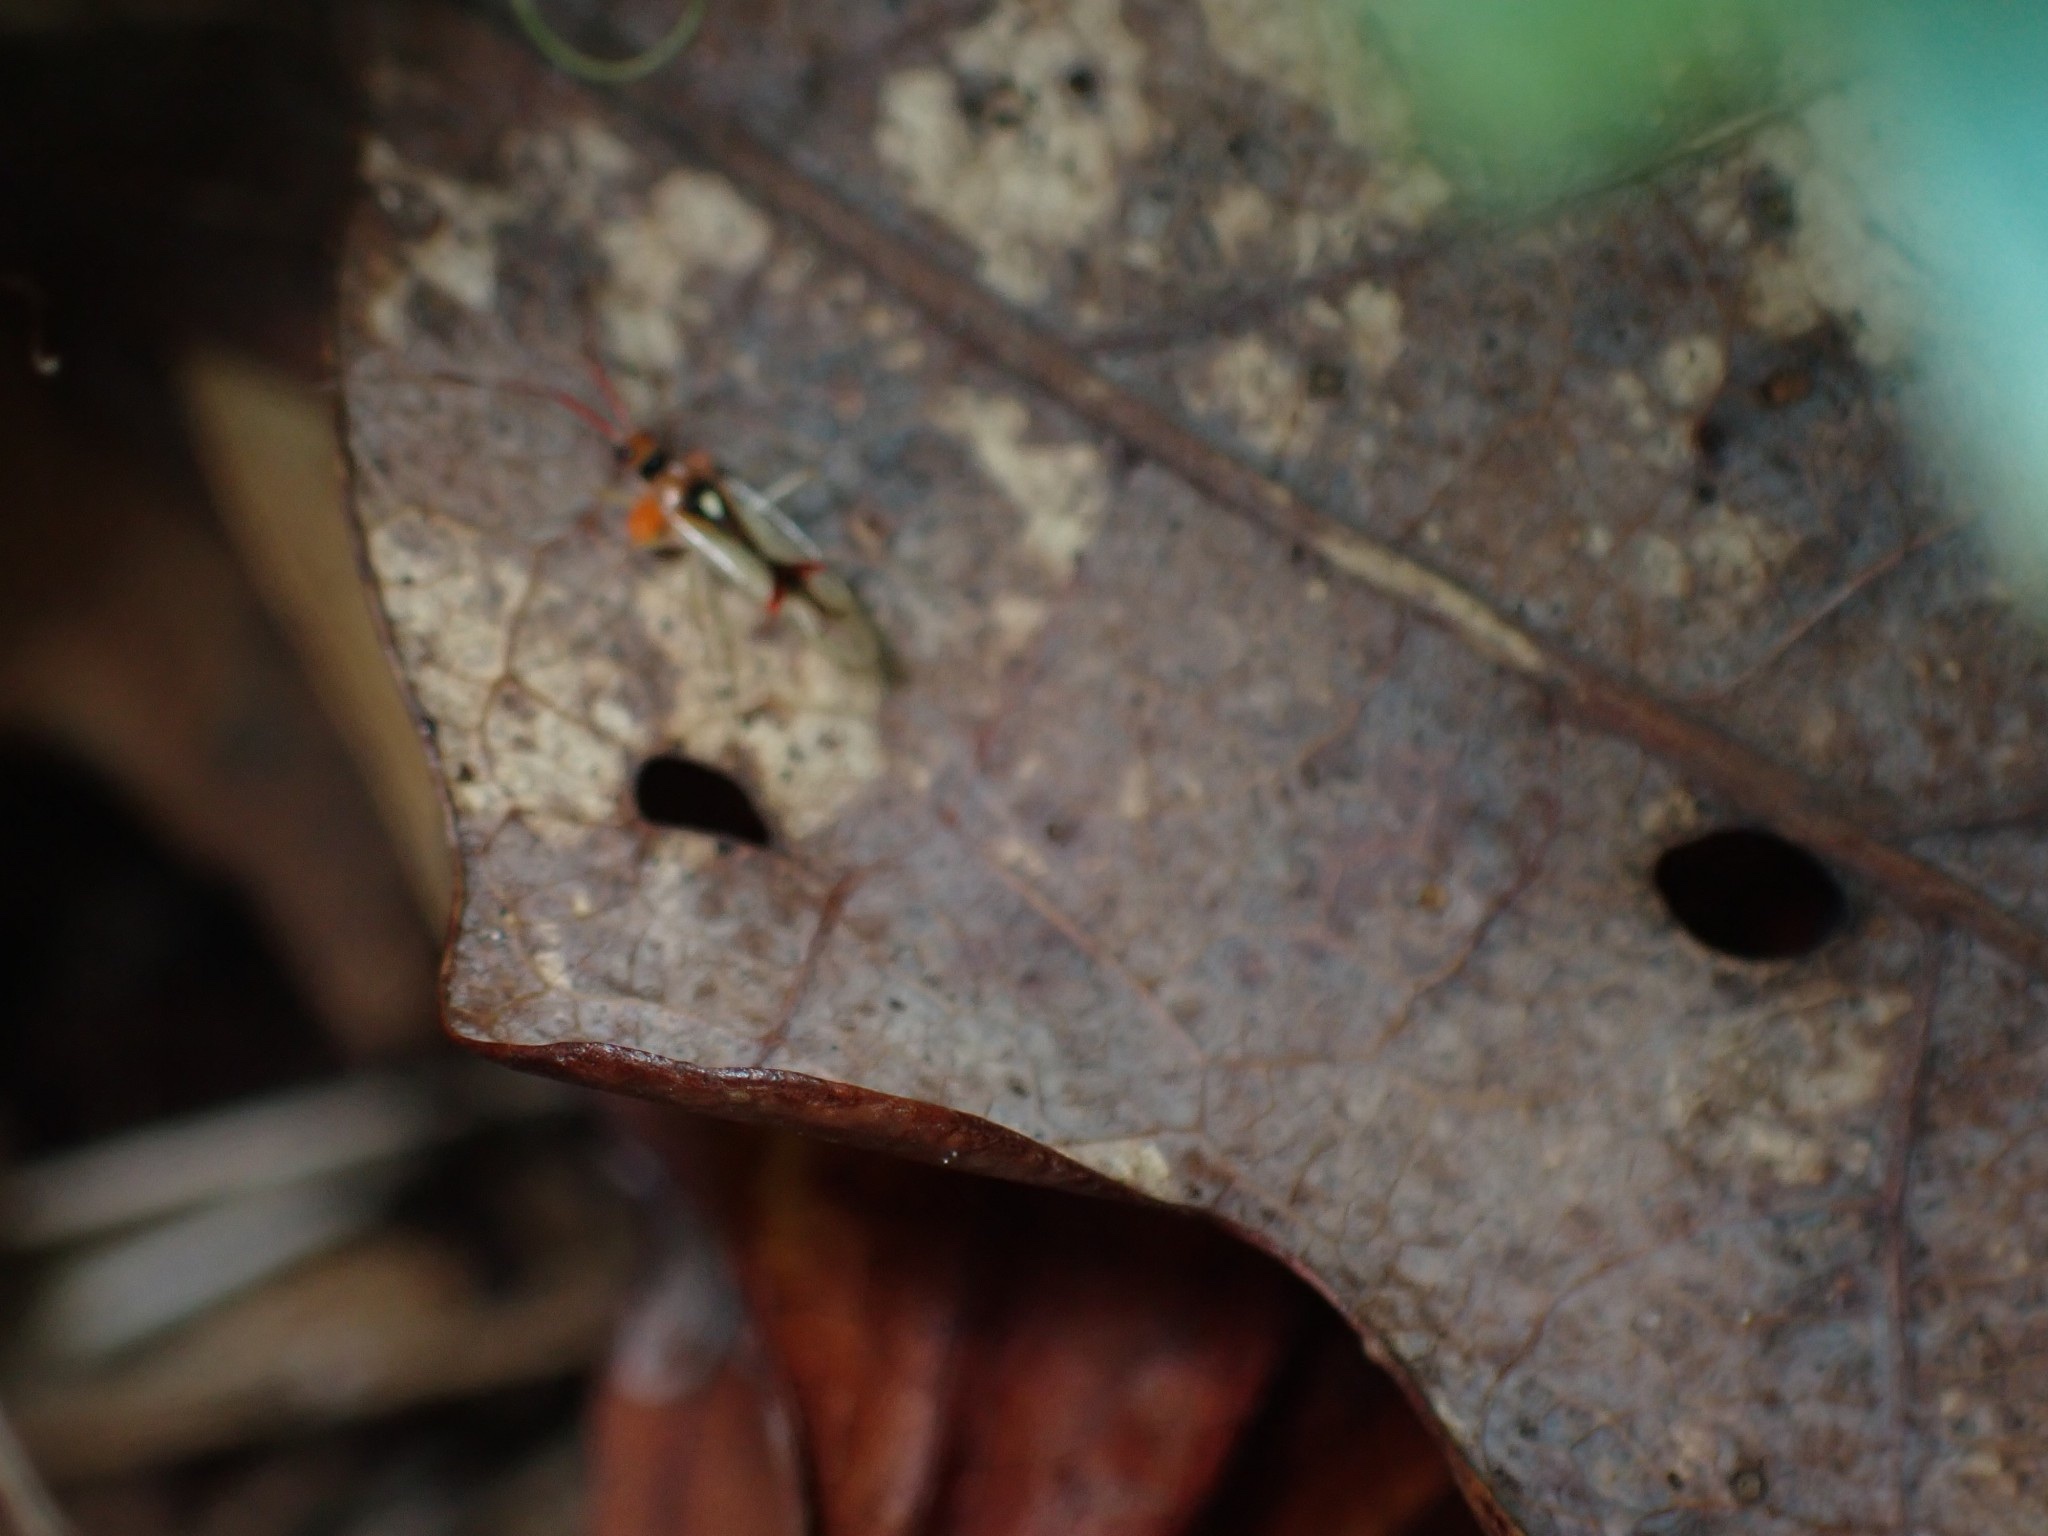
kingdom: Animalia
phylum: Arthropoda
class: Insecta
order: Hemiptera
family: Miridae
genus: Hyaliodes
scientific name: Hyaliodes harti
